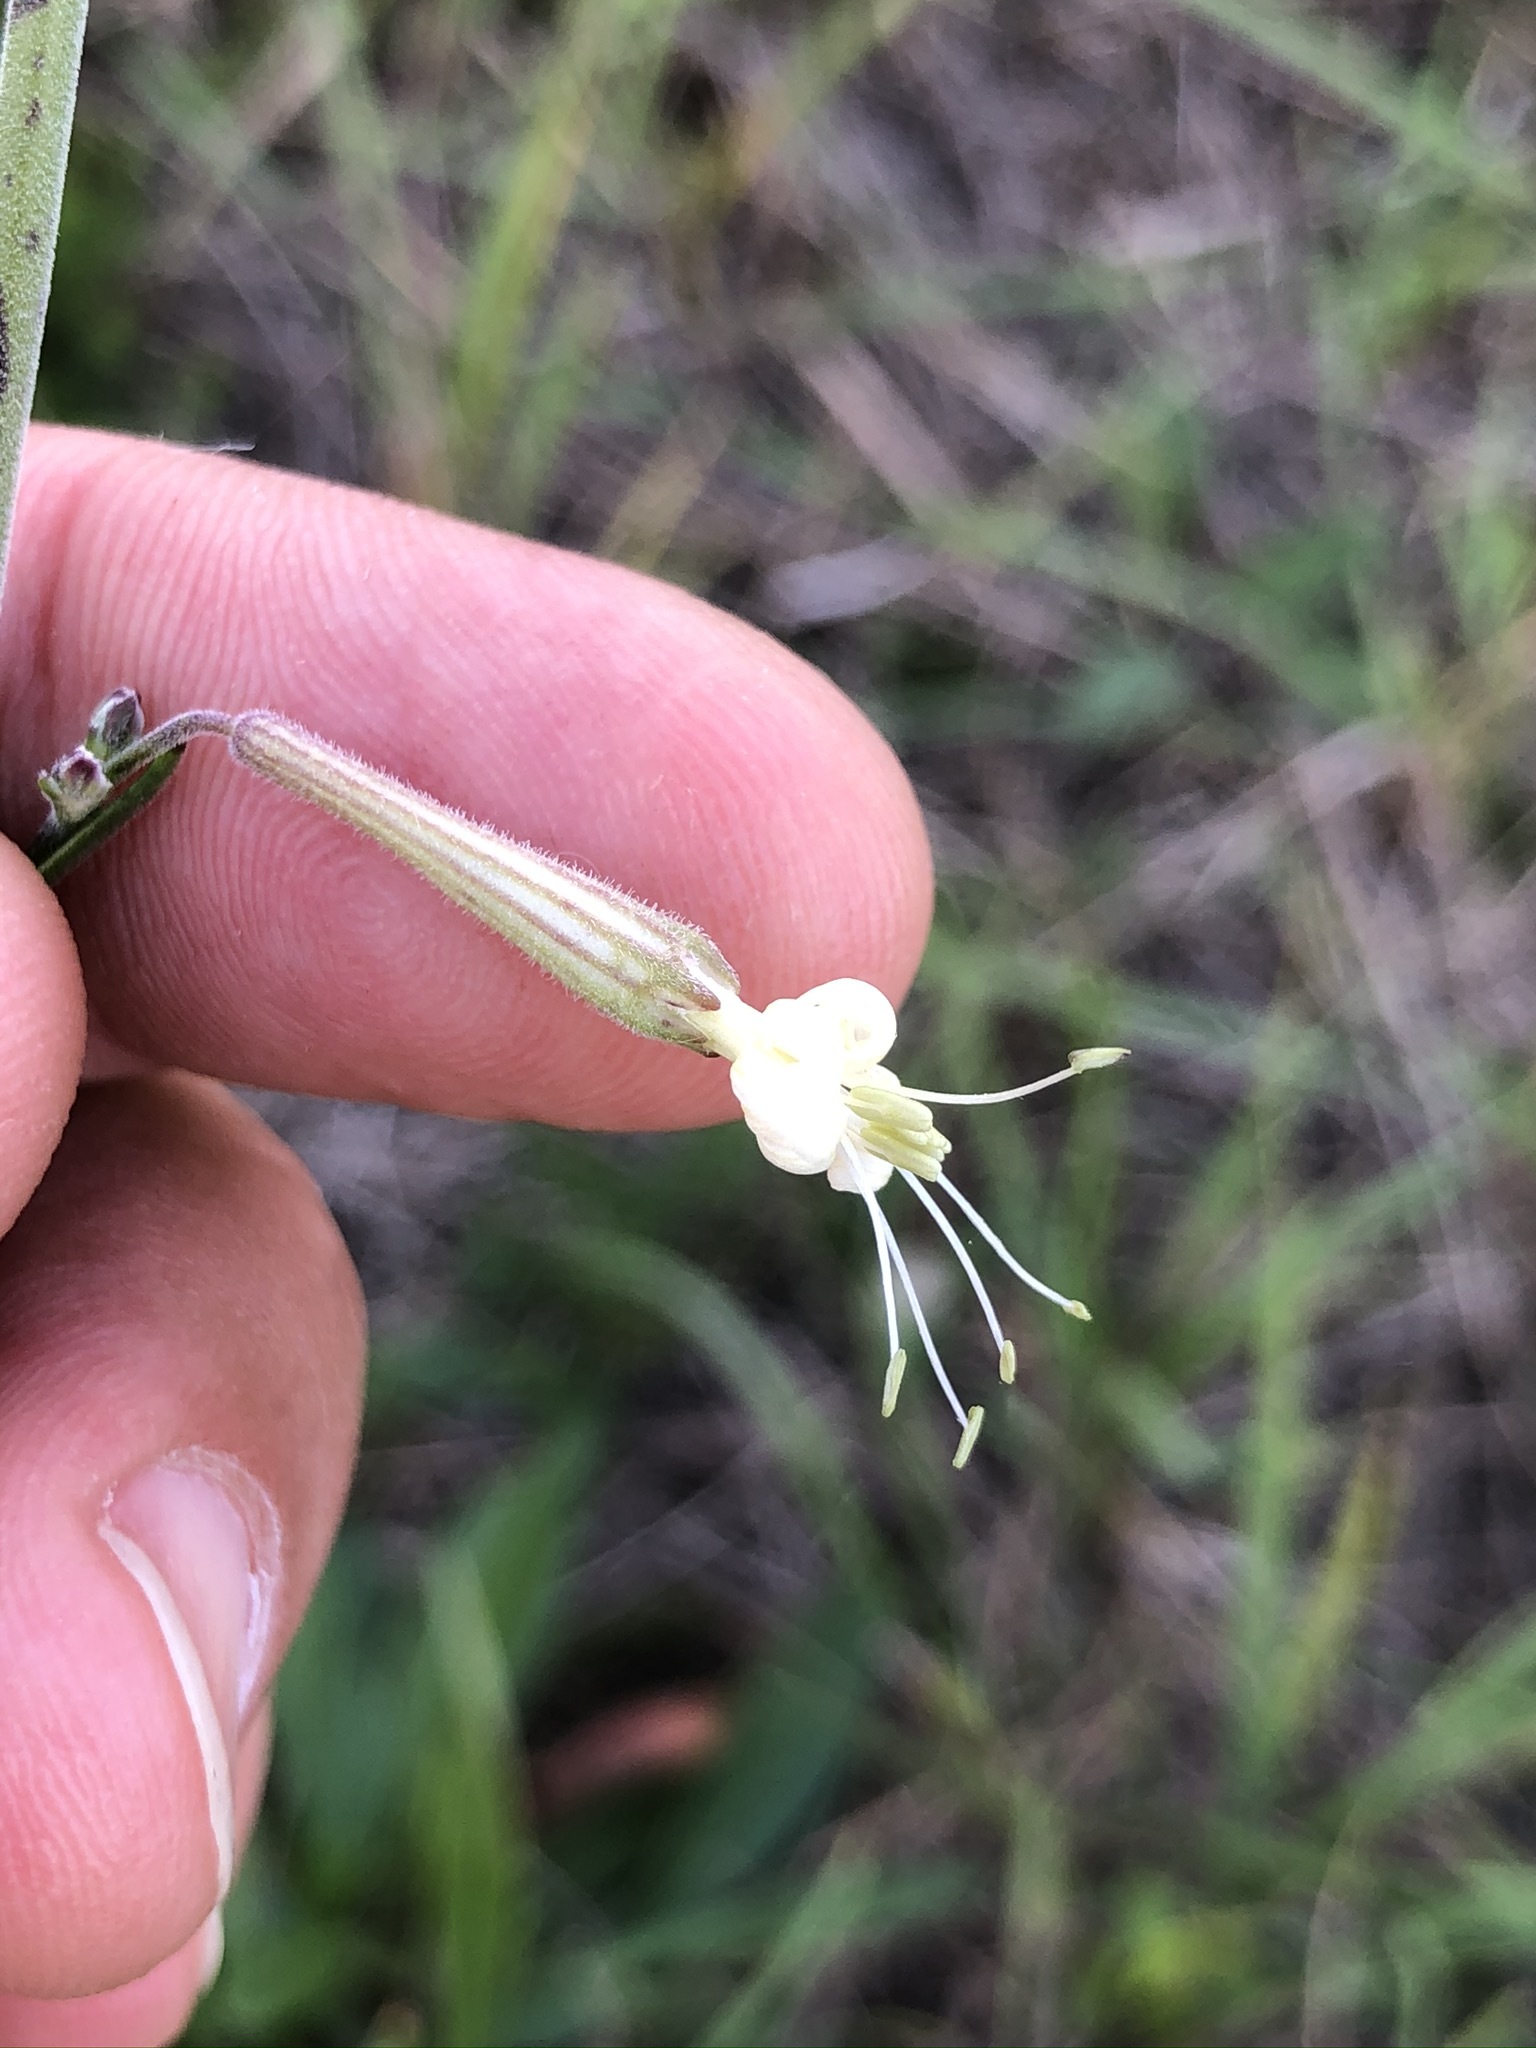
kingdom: Plantae
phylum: Tracheophyta
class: Magnoliopsida
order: Caryophyllales
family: Caryophyllaceae
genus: Silene
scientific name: Silene multiflora
